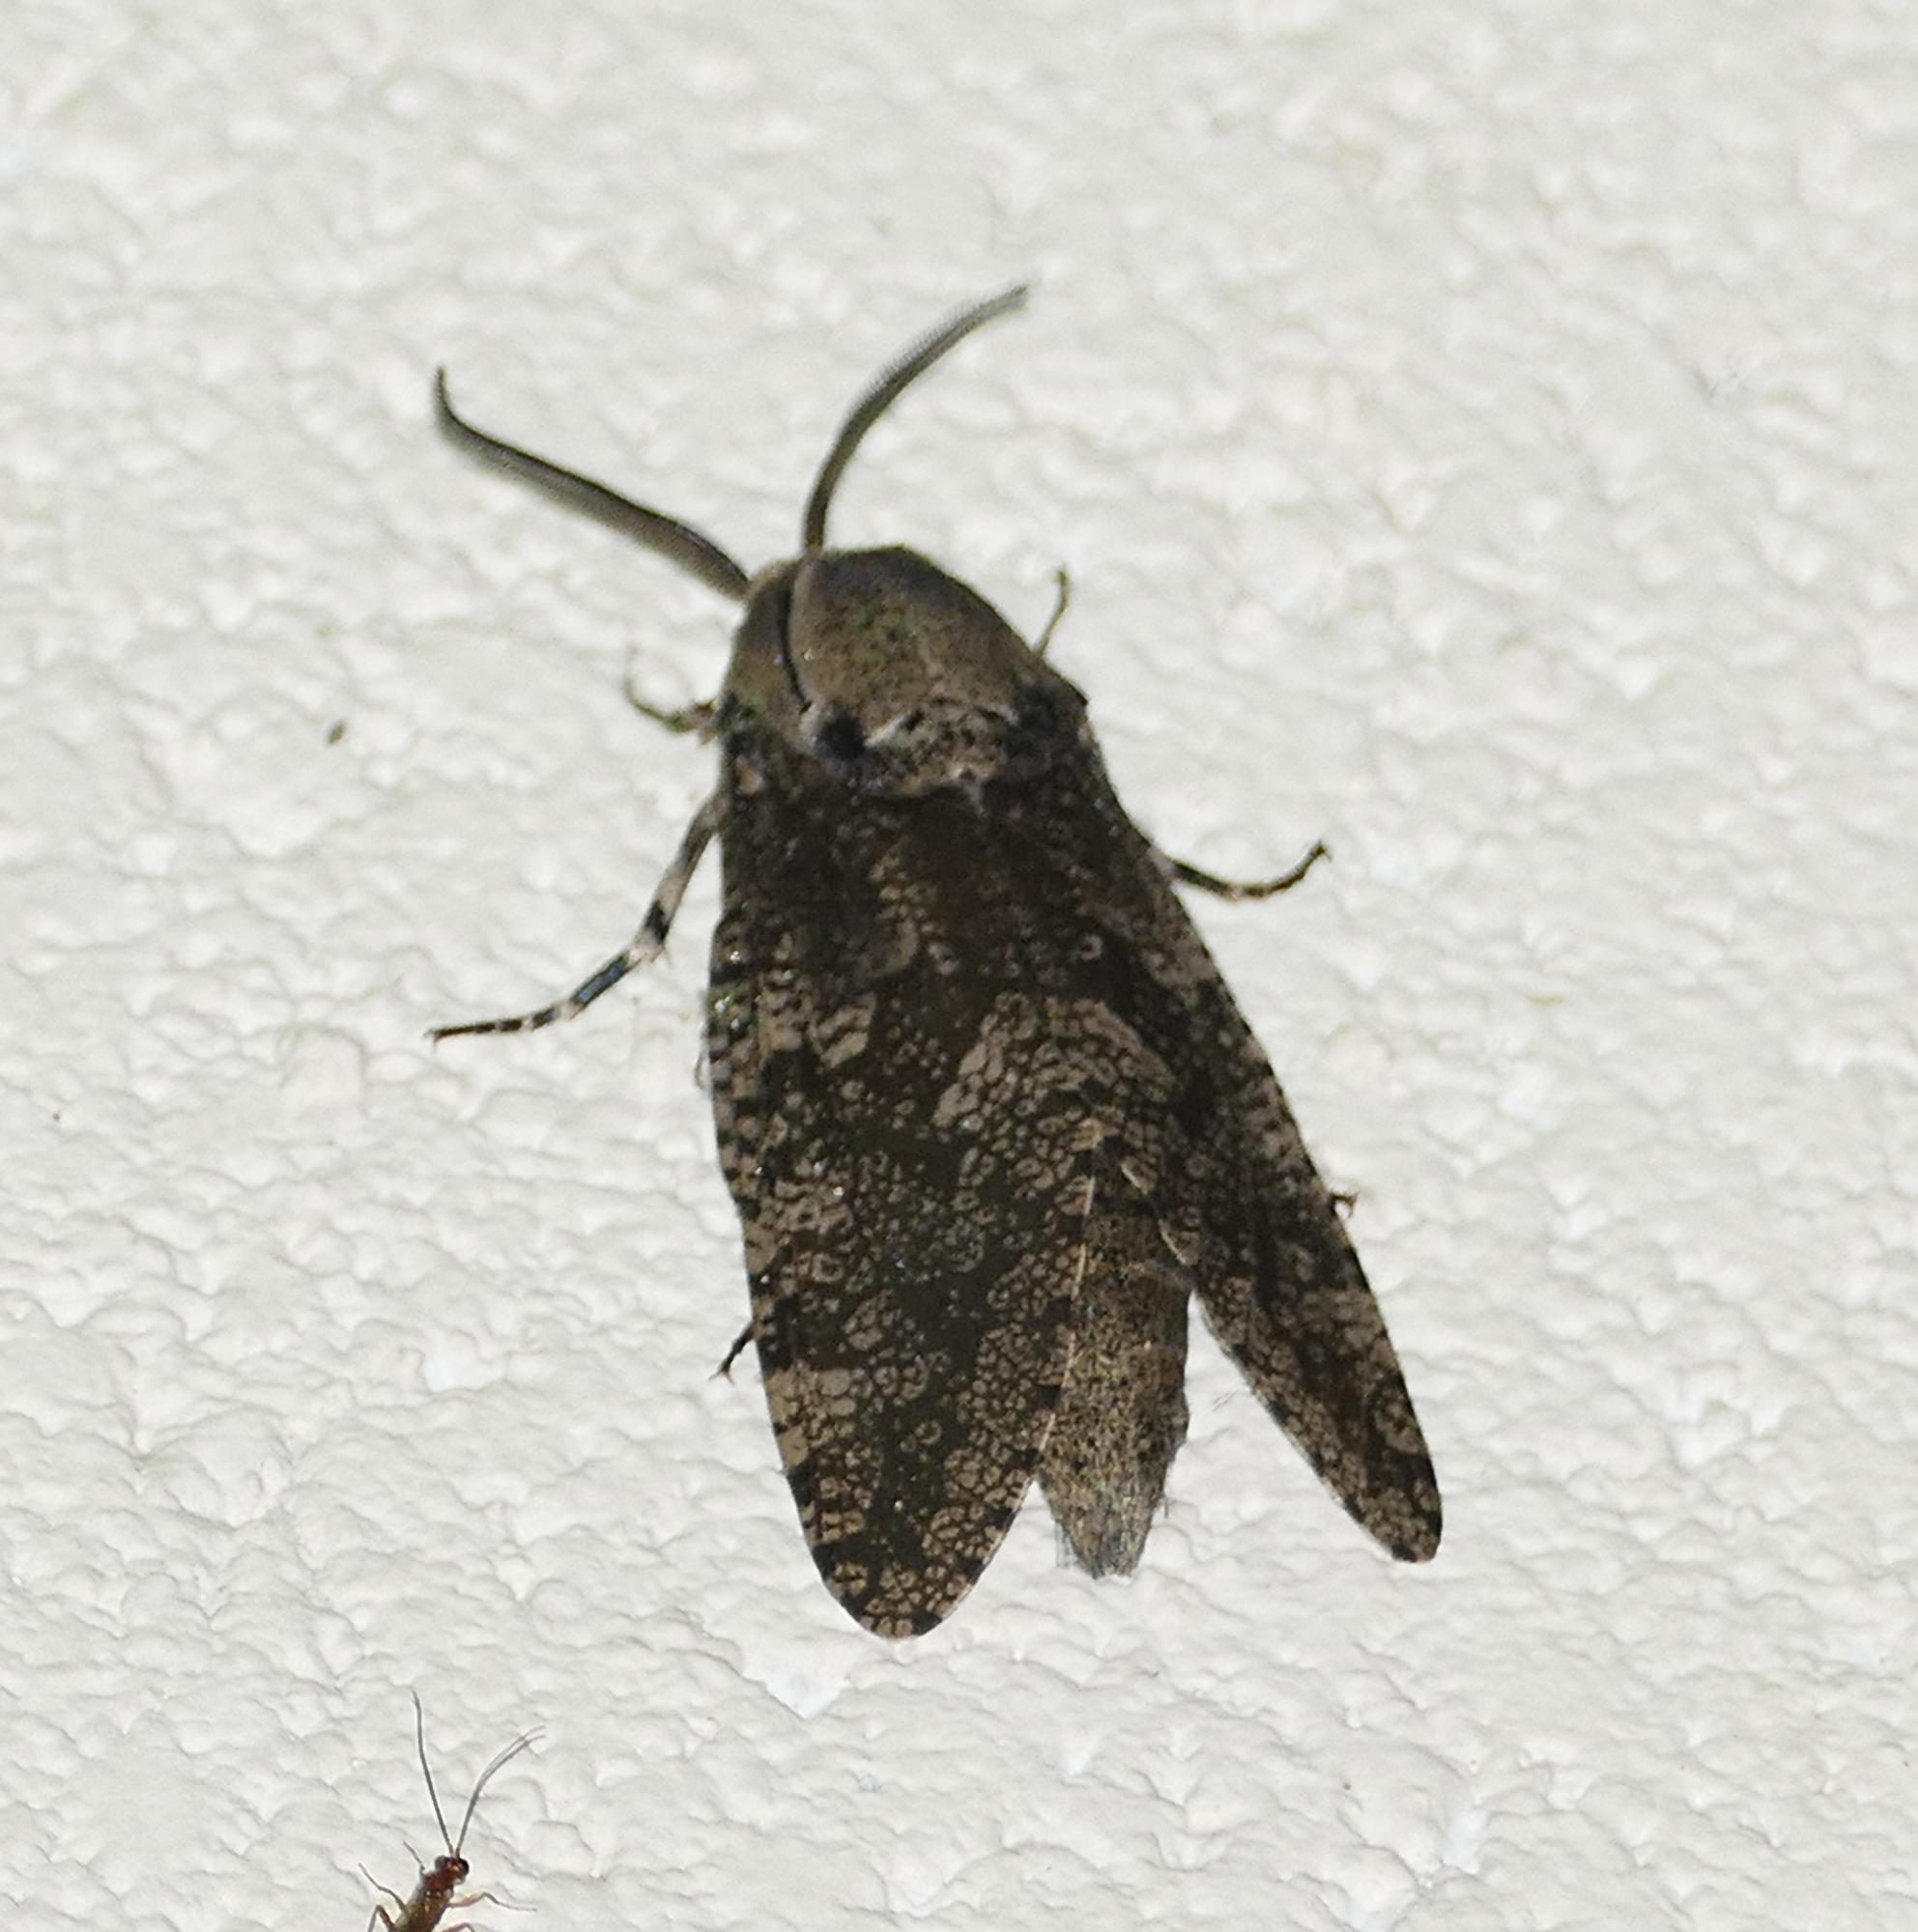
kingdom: Animalia
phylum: Arthropoda
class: Insecta
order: Lepidoptera
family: Cossidae
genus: Prionoxystus
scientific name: Prionoxystus robiniae
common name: Carpenterworm
